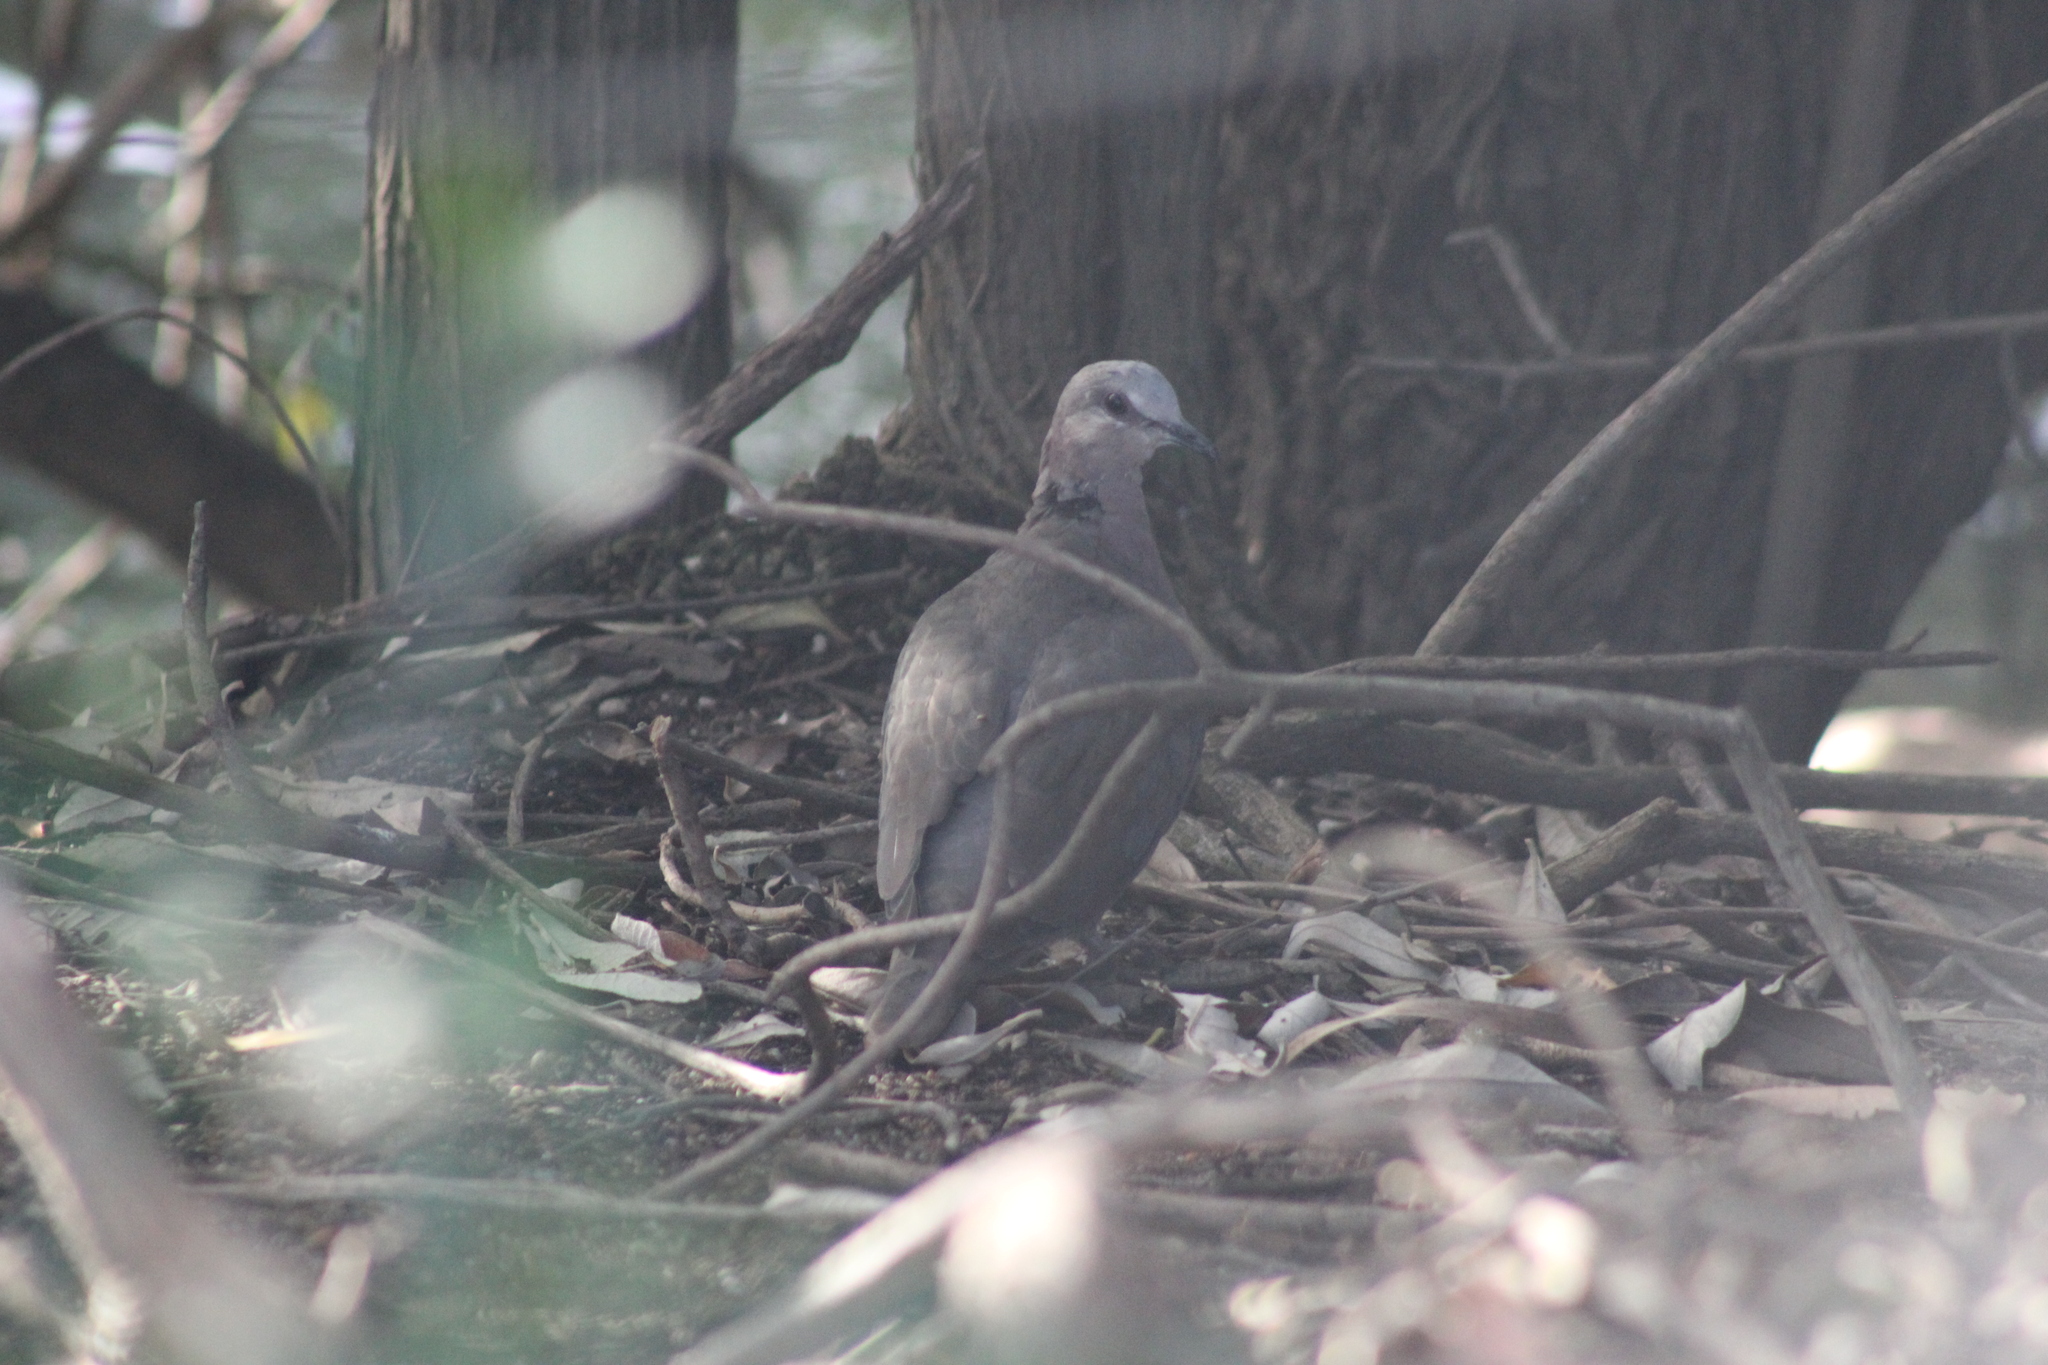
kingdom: Animalia
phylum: Chordata
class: Aves
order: Columbiformes
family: Columbidae
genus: Streptopelia
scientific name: Streptopelia semitorquata
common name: Red-eyed dove
